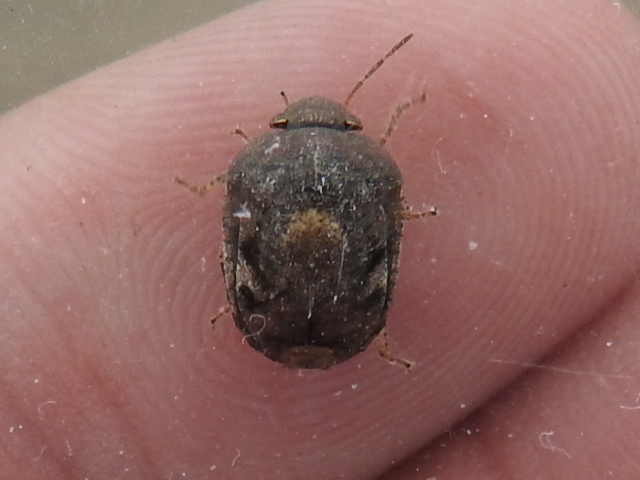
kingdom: Animalia
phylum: Arthropoda
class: Insecta
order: Hemiptera
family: Scutelleridae
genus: Stethaulax
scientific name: Stethaulax marmoratus
